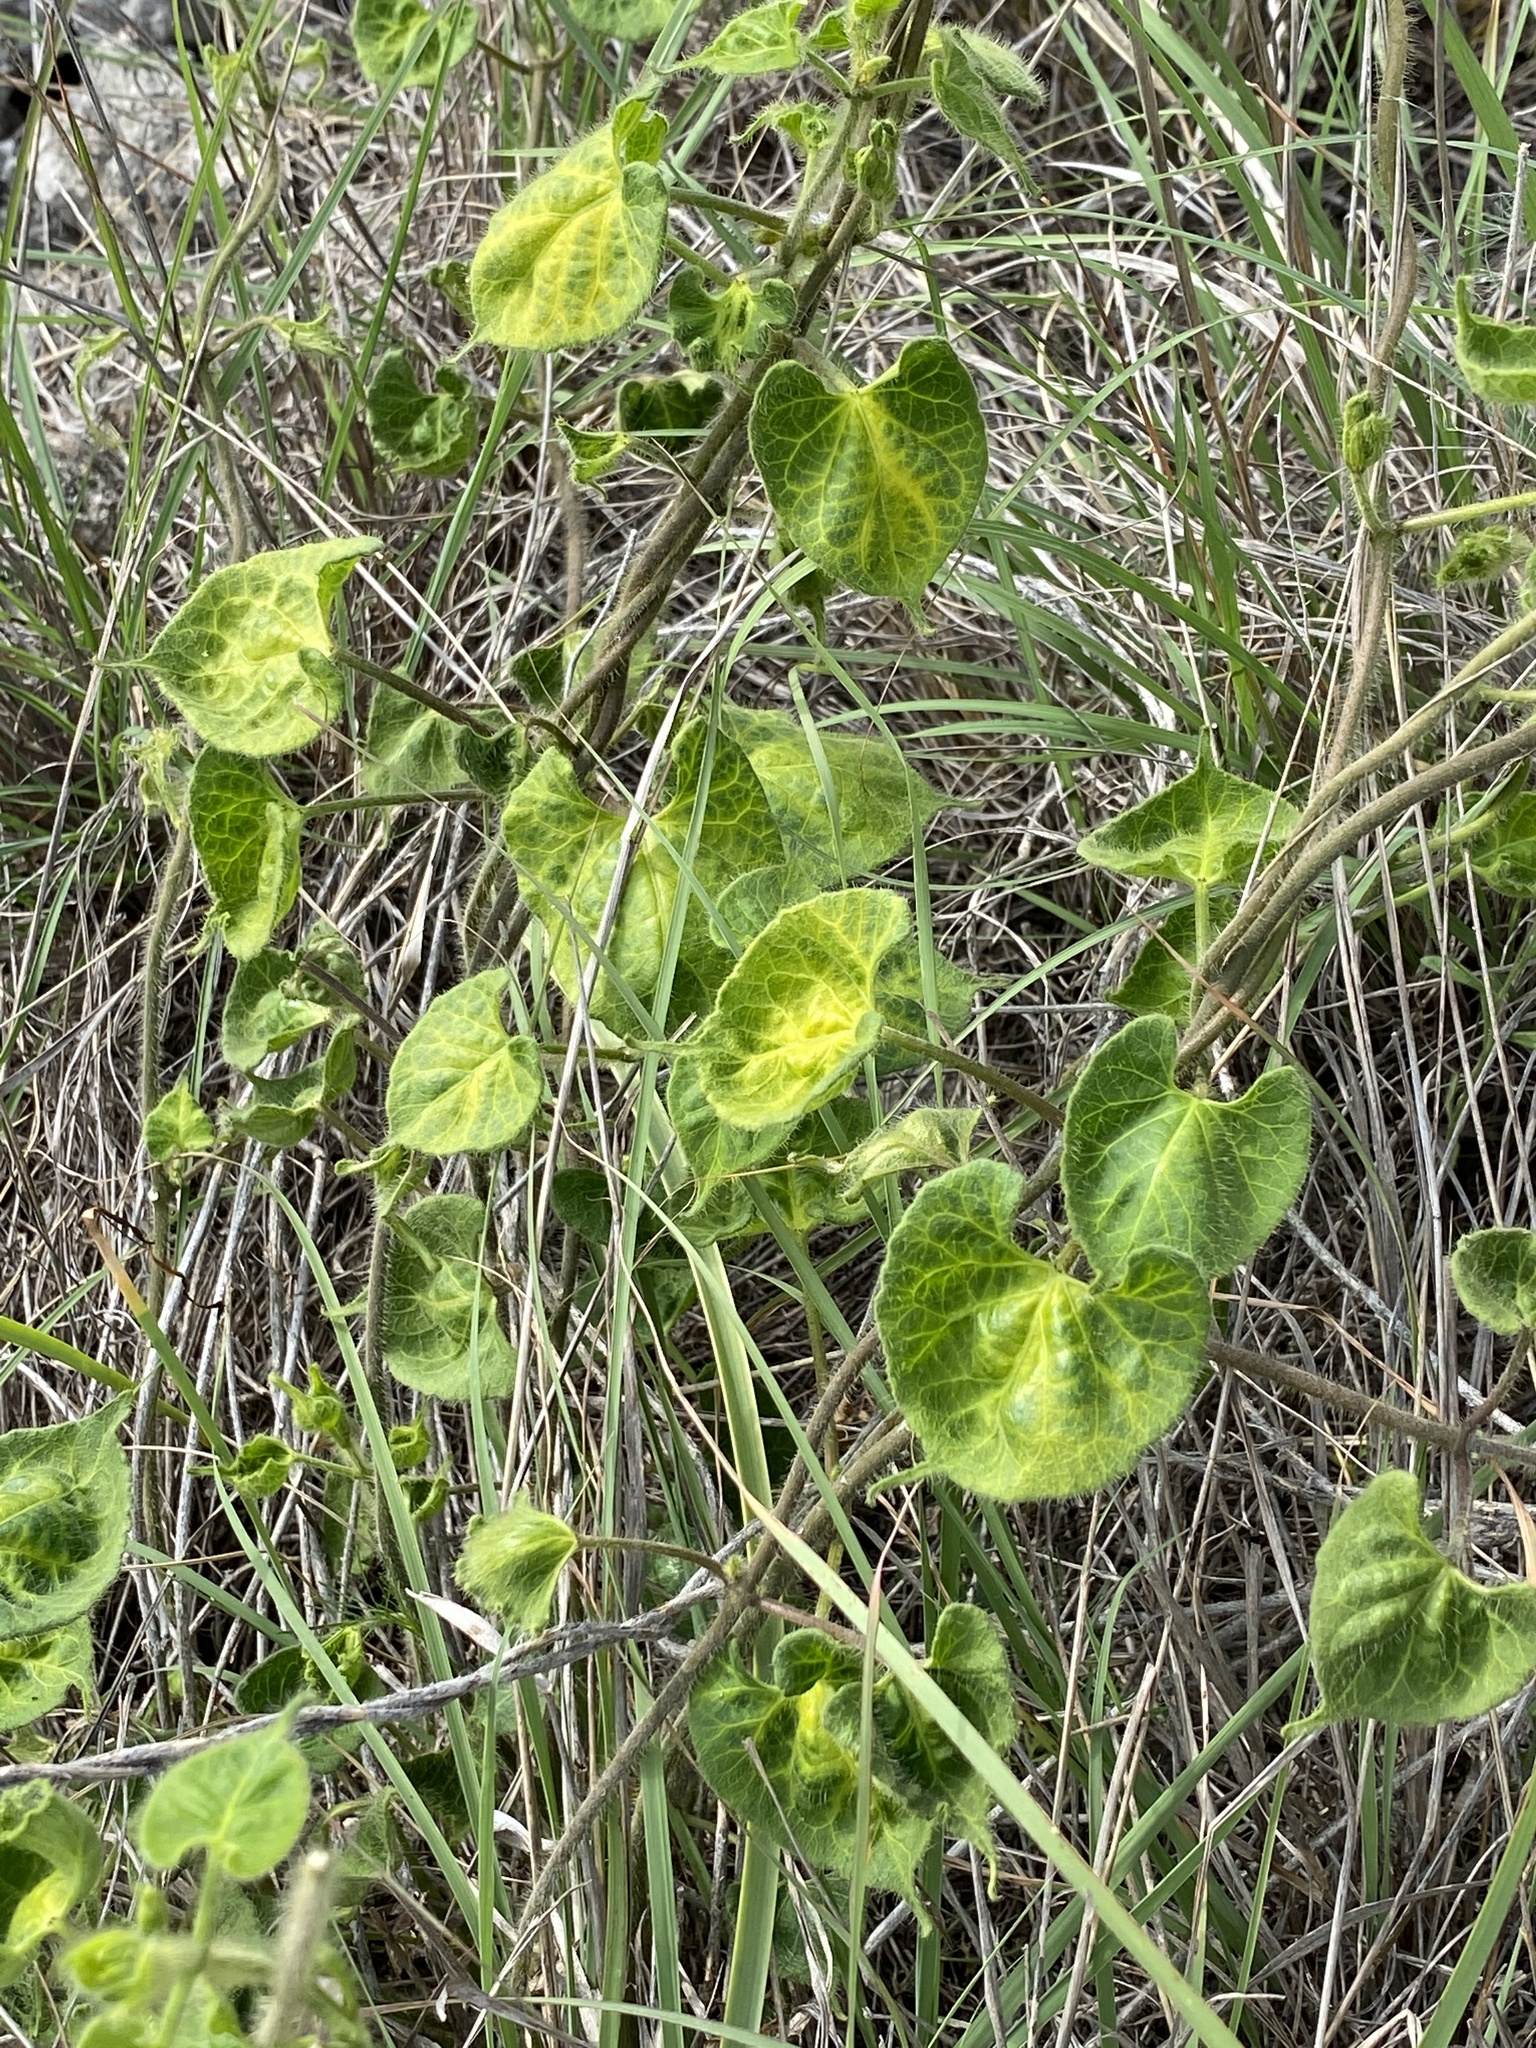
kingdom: Plantae
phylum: Tracheophyta
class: Magnoliopsida
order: Gentianales
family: Apocynaceae
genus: Dictyanthus
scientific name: Dictyanthus reticulatus
